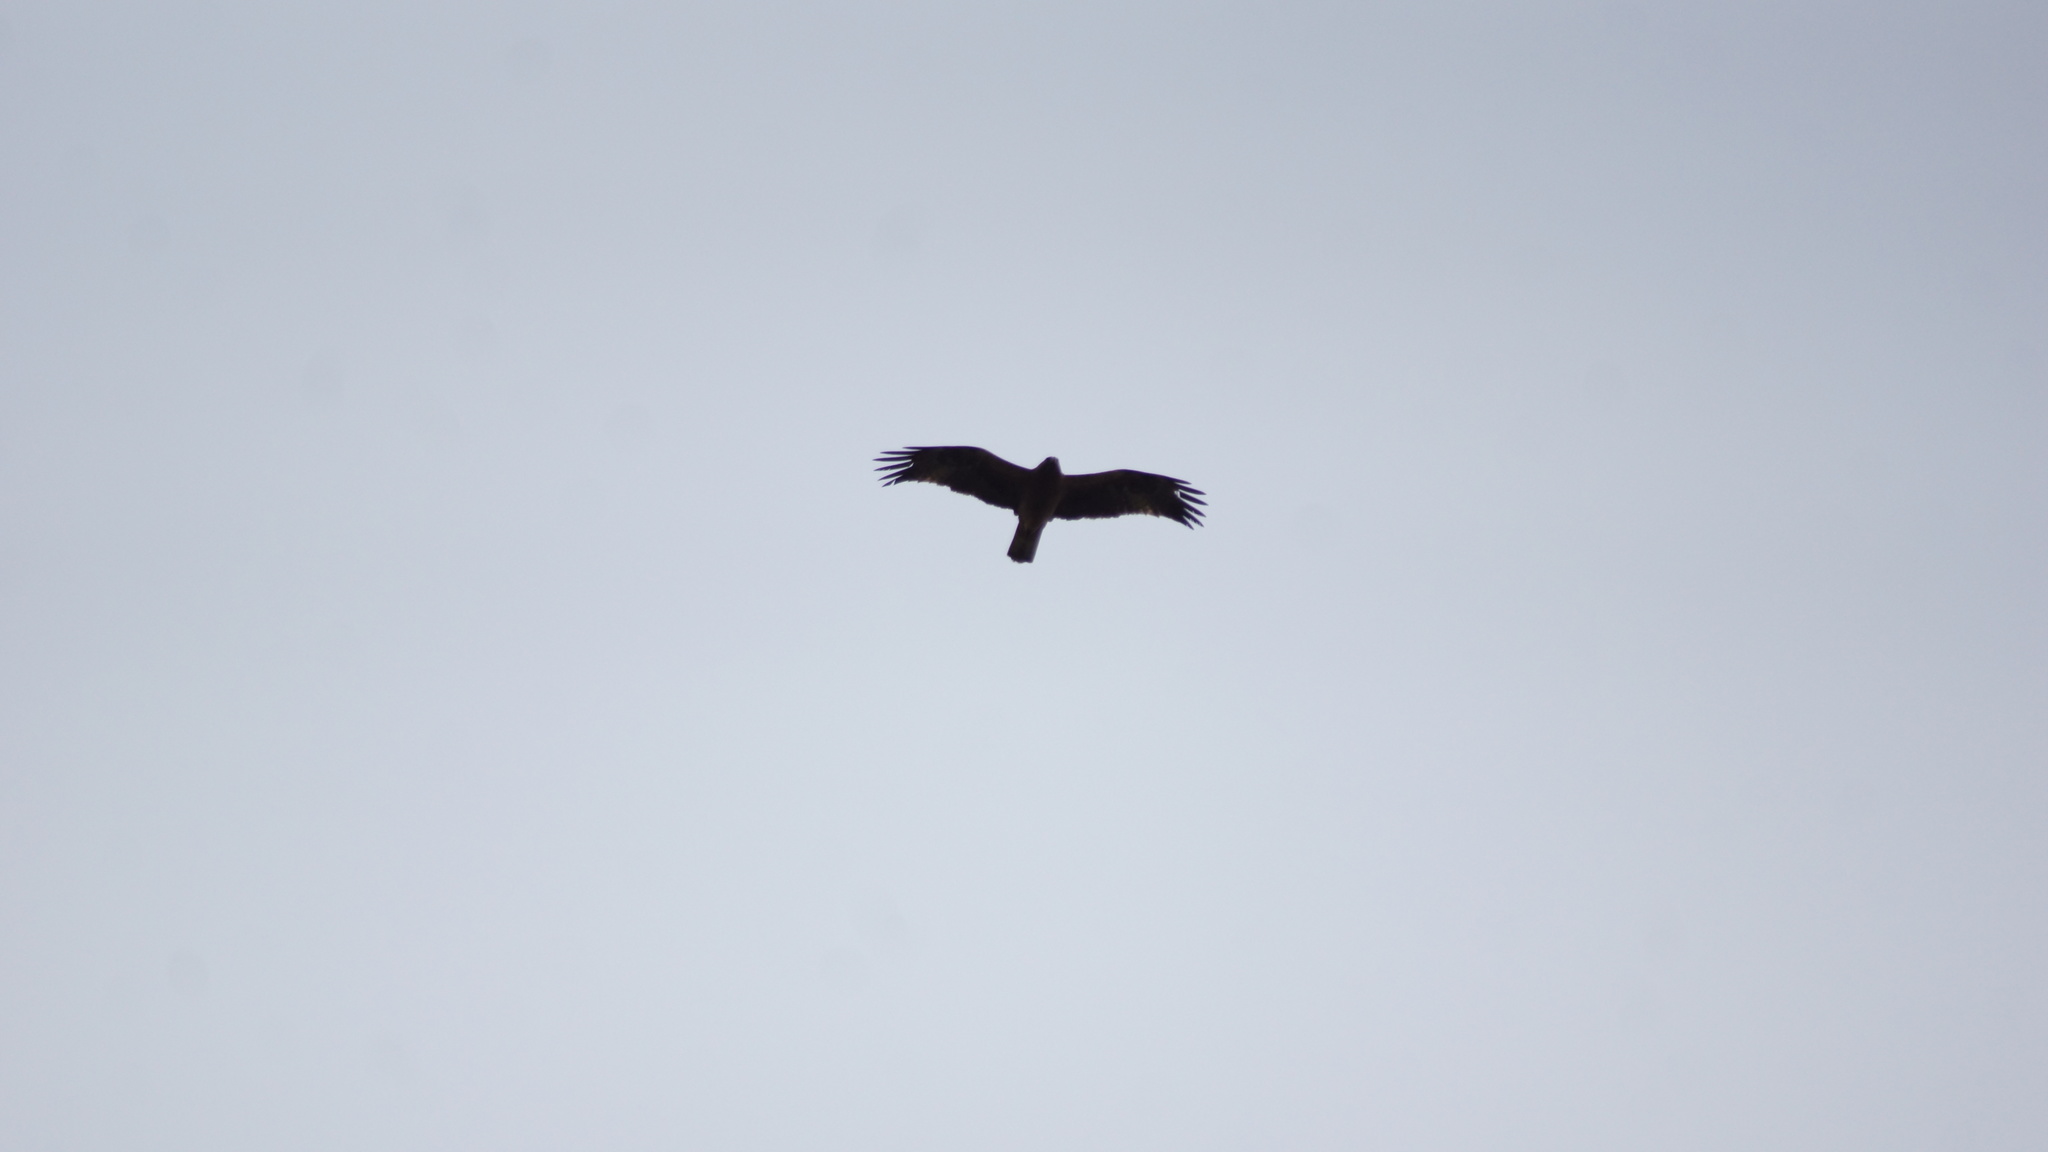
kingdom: Animalia
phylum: Chordata
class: Aves
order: Accipitriformes
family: Accipitridae
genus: Hieraaetus
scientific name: Hieraaetus pennatus
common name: Booted eagle
